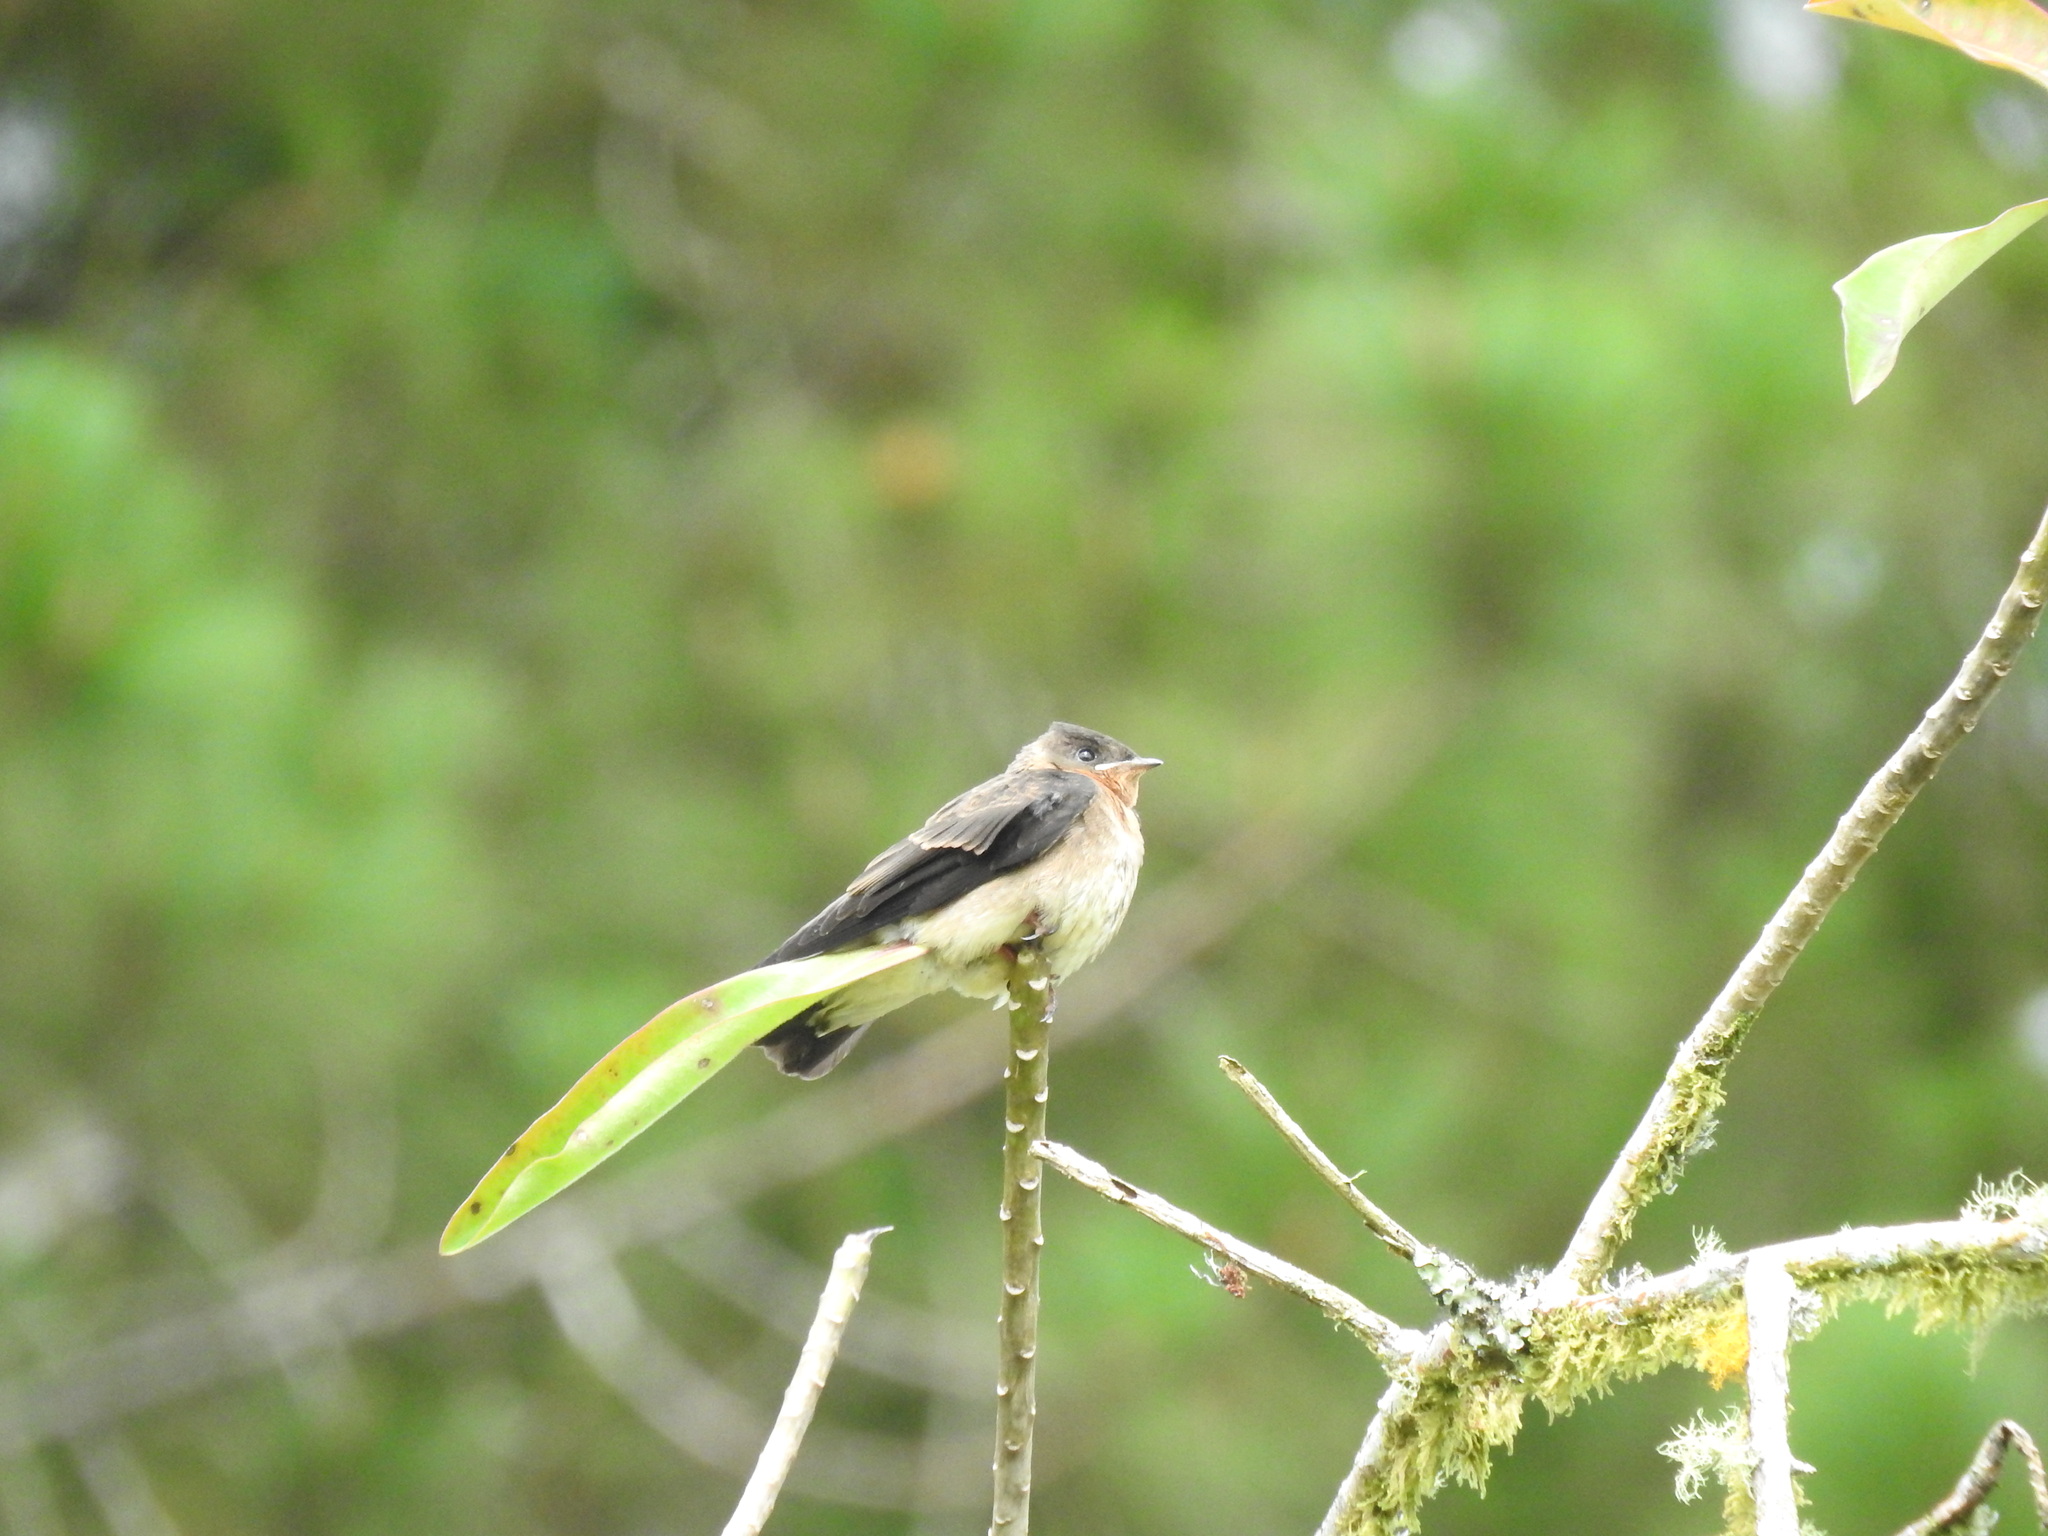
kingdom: Animalia
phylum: Chordata
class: Aves
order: Passeriformes
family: Hirundinidae
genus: Stelgidopteryx
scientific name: Stelgidopteryx ruficollis
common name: Southern rough-winged swallow
